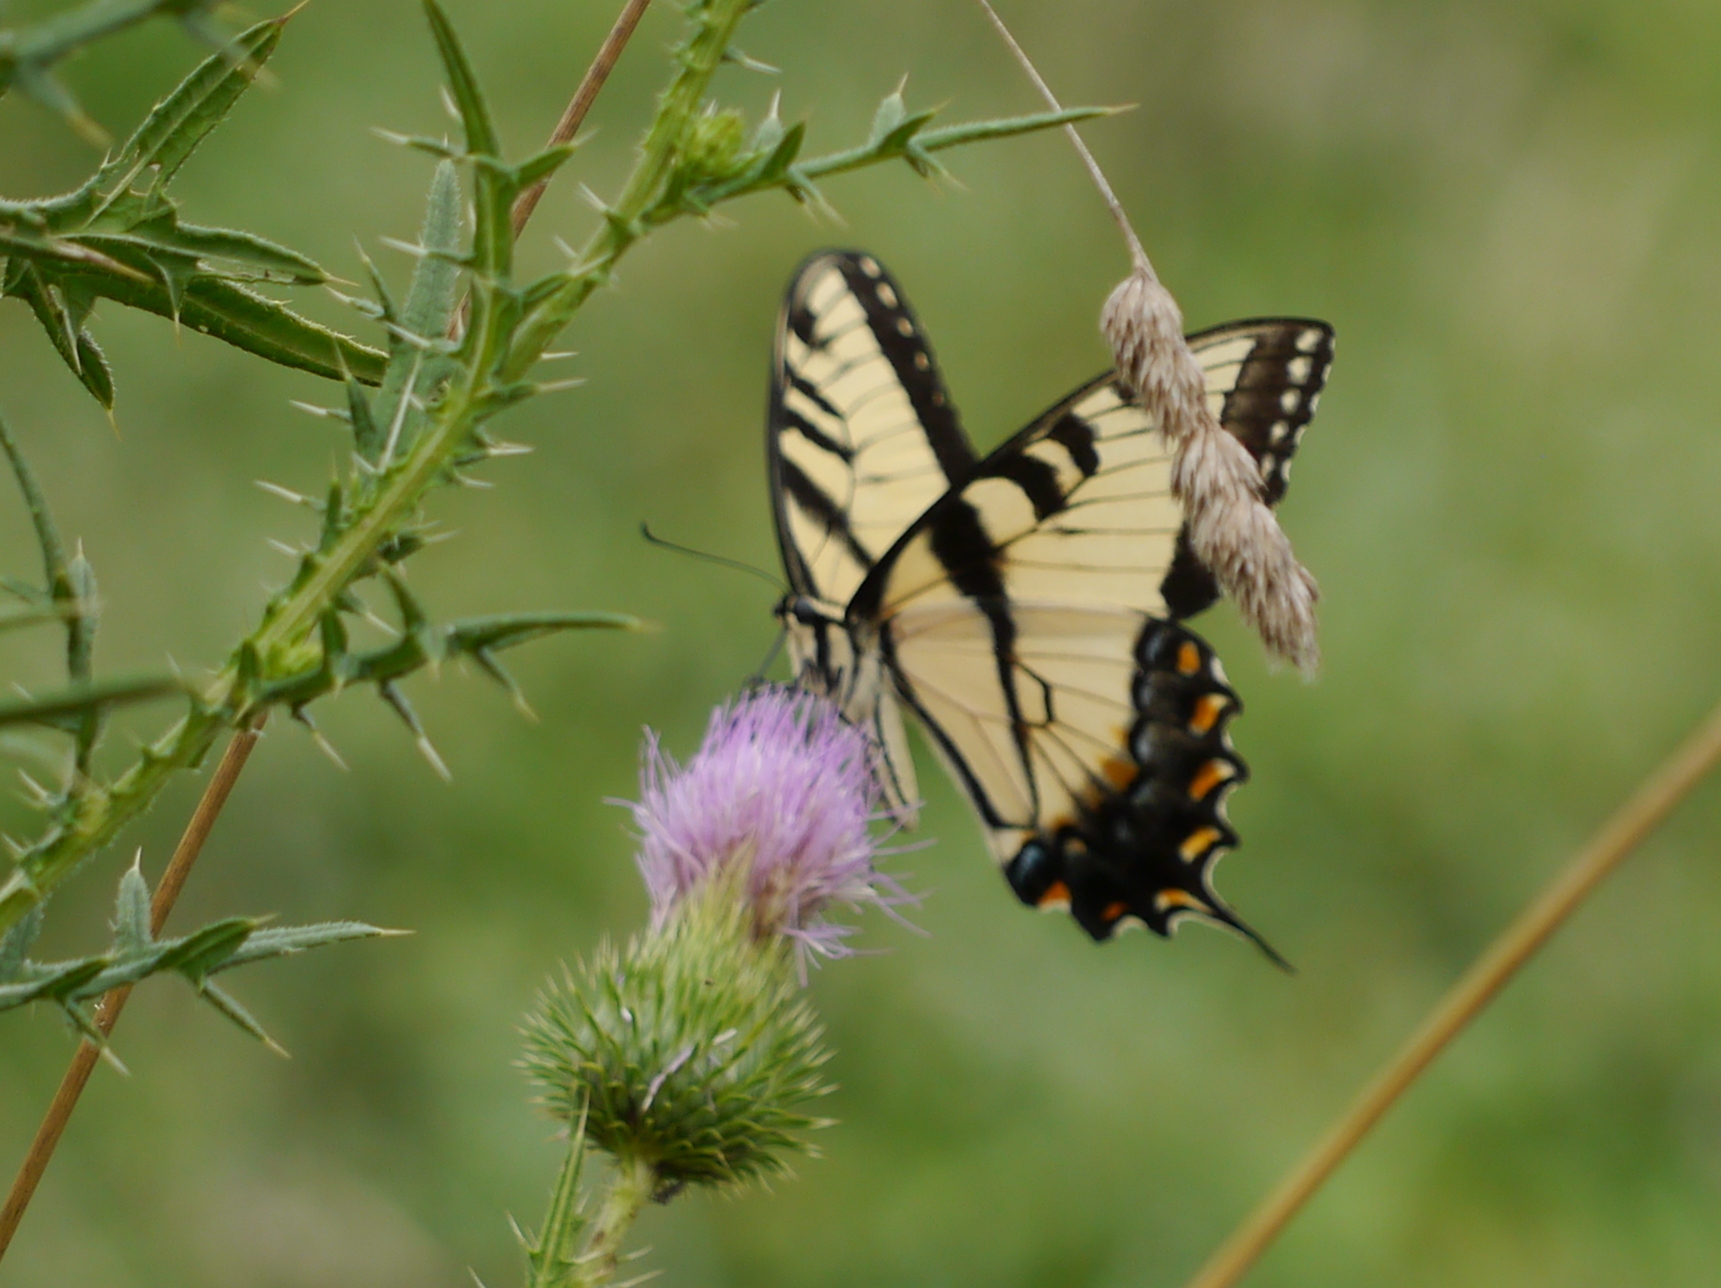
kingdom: Animalia
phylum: Arthropoda
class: Insecta
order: Lepidoptera
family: Papilionidae
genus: Papilio
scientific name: Papilio glaucus
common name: Tiger swallowtail
